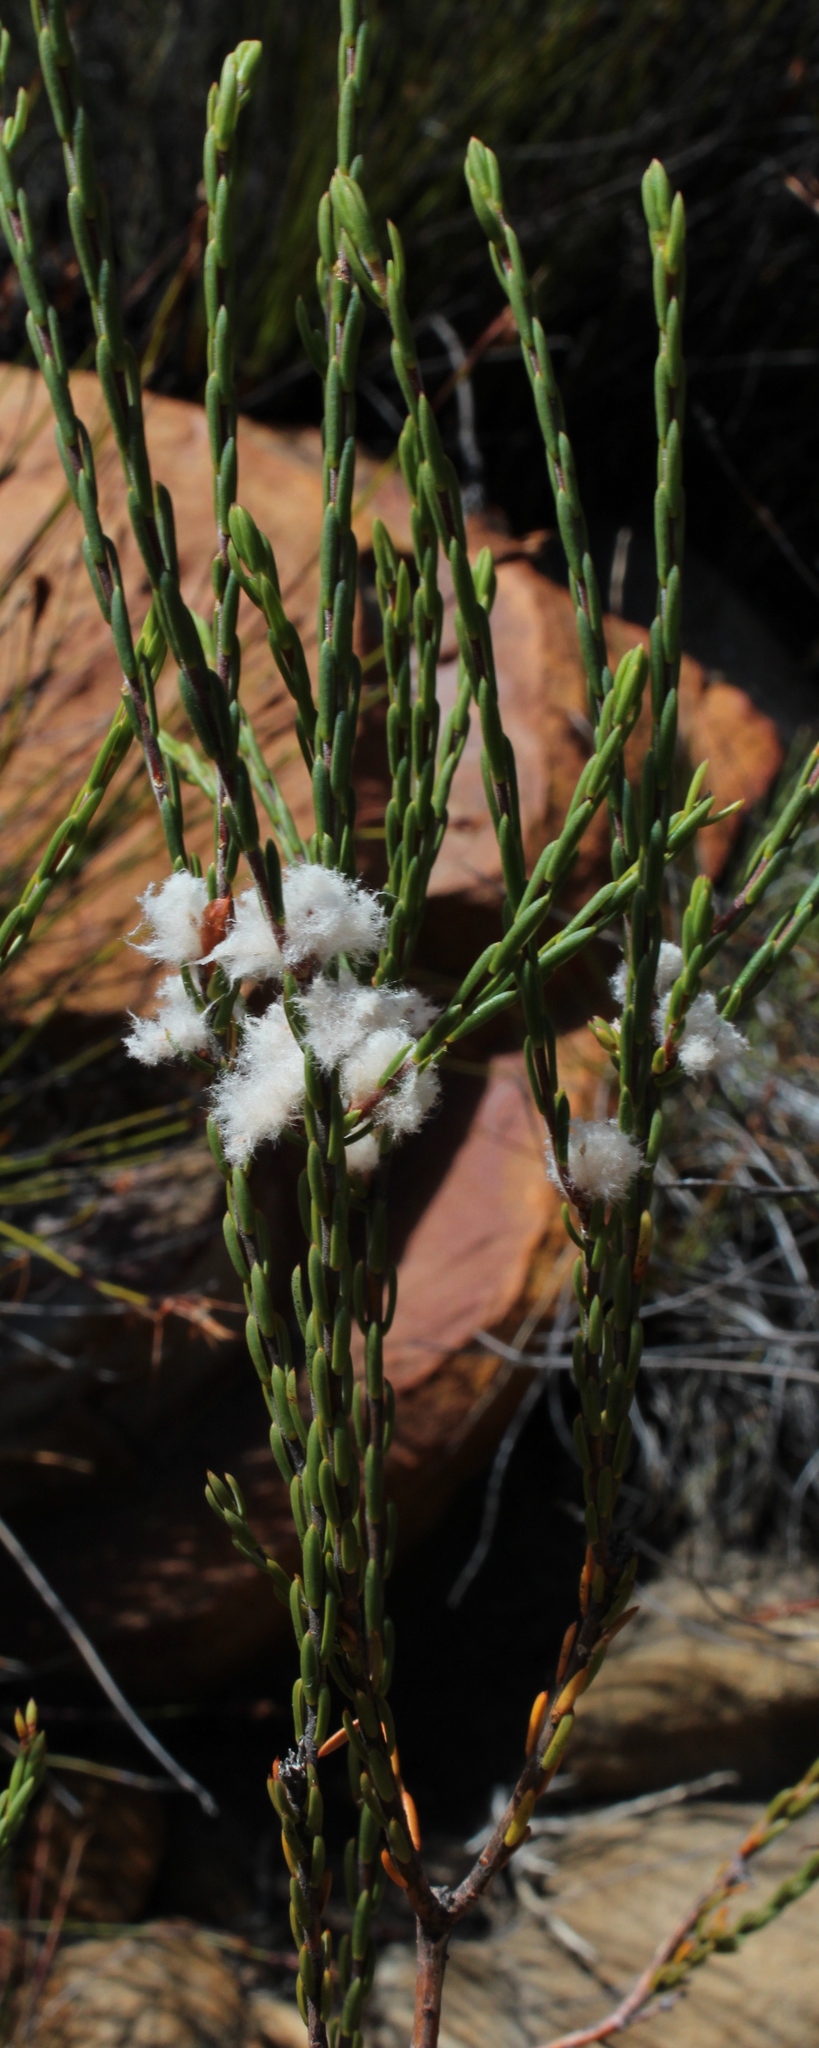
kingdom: Plantae
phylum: Tracheophyta
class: Magnoliopsida
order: Malvales
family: Thymelaeaceae
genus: Lachnaea
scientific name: Lachnaea montana
